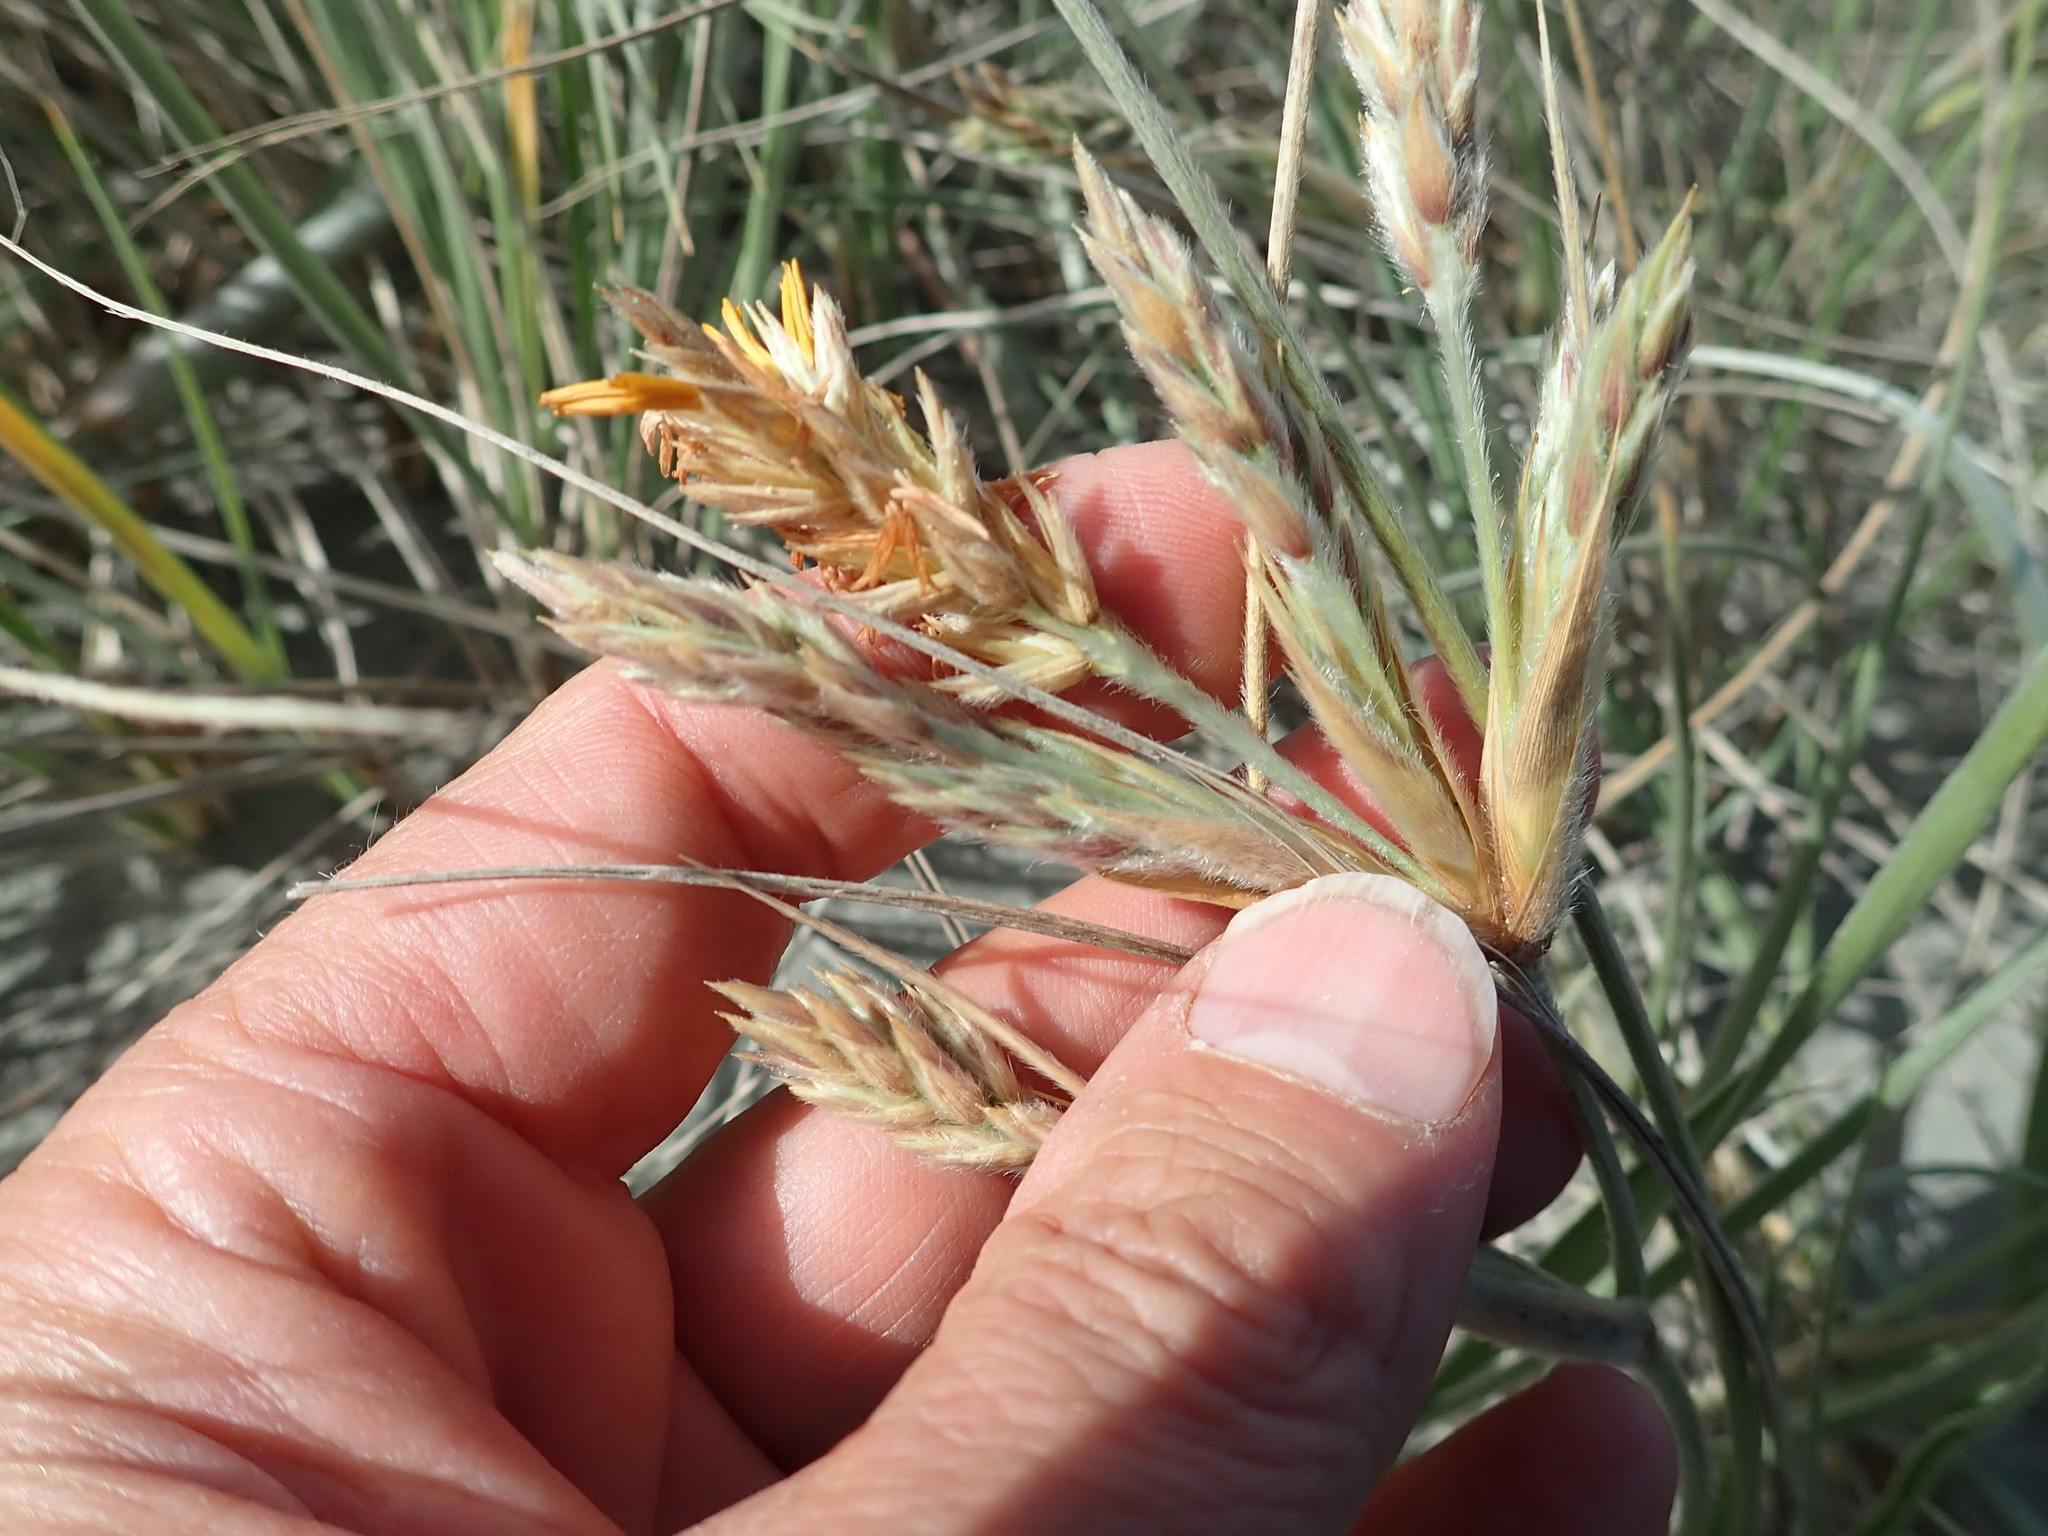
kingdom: Plantae
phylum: Tracheophyta
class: Liliopsida
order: Poales
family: Poaceae
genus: Spinifex
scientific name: Spinifex sericeus
